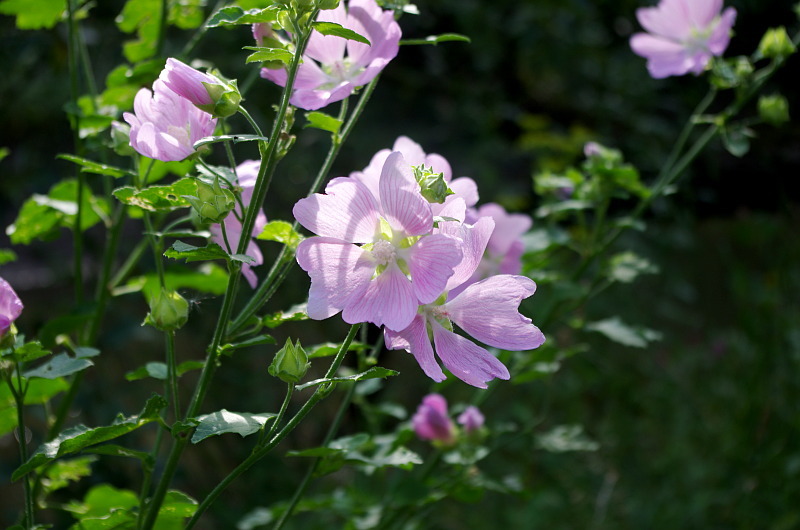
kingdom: Plantae
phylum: Tracheophyta
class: Magnoliopsida
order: Malvales
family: Malvaceae
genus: Malva
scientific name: Malva thuringiaca
